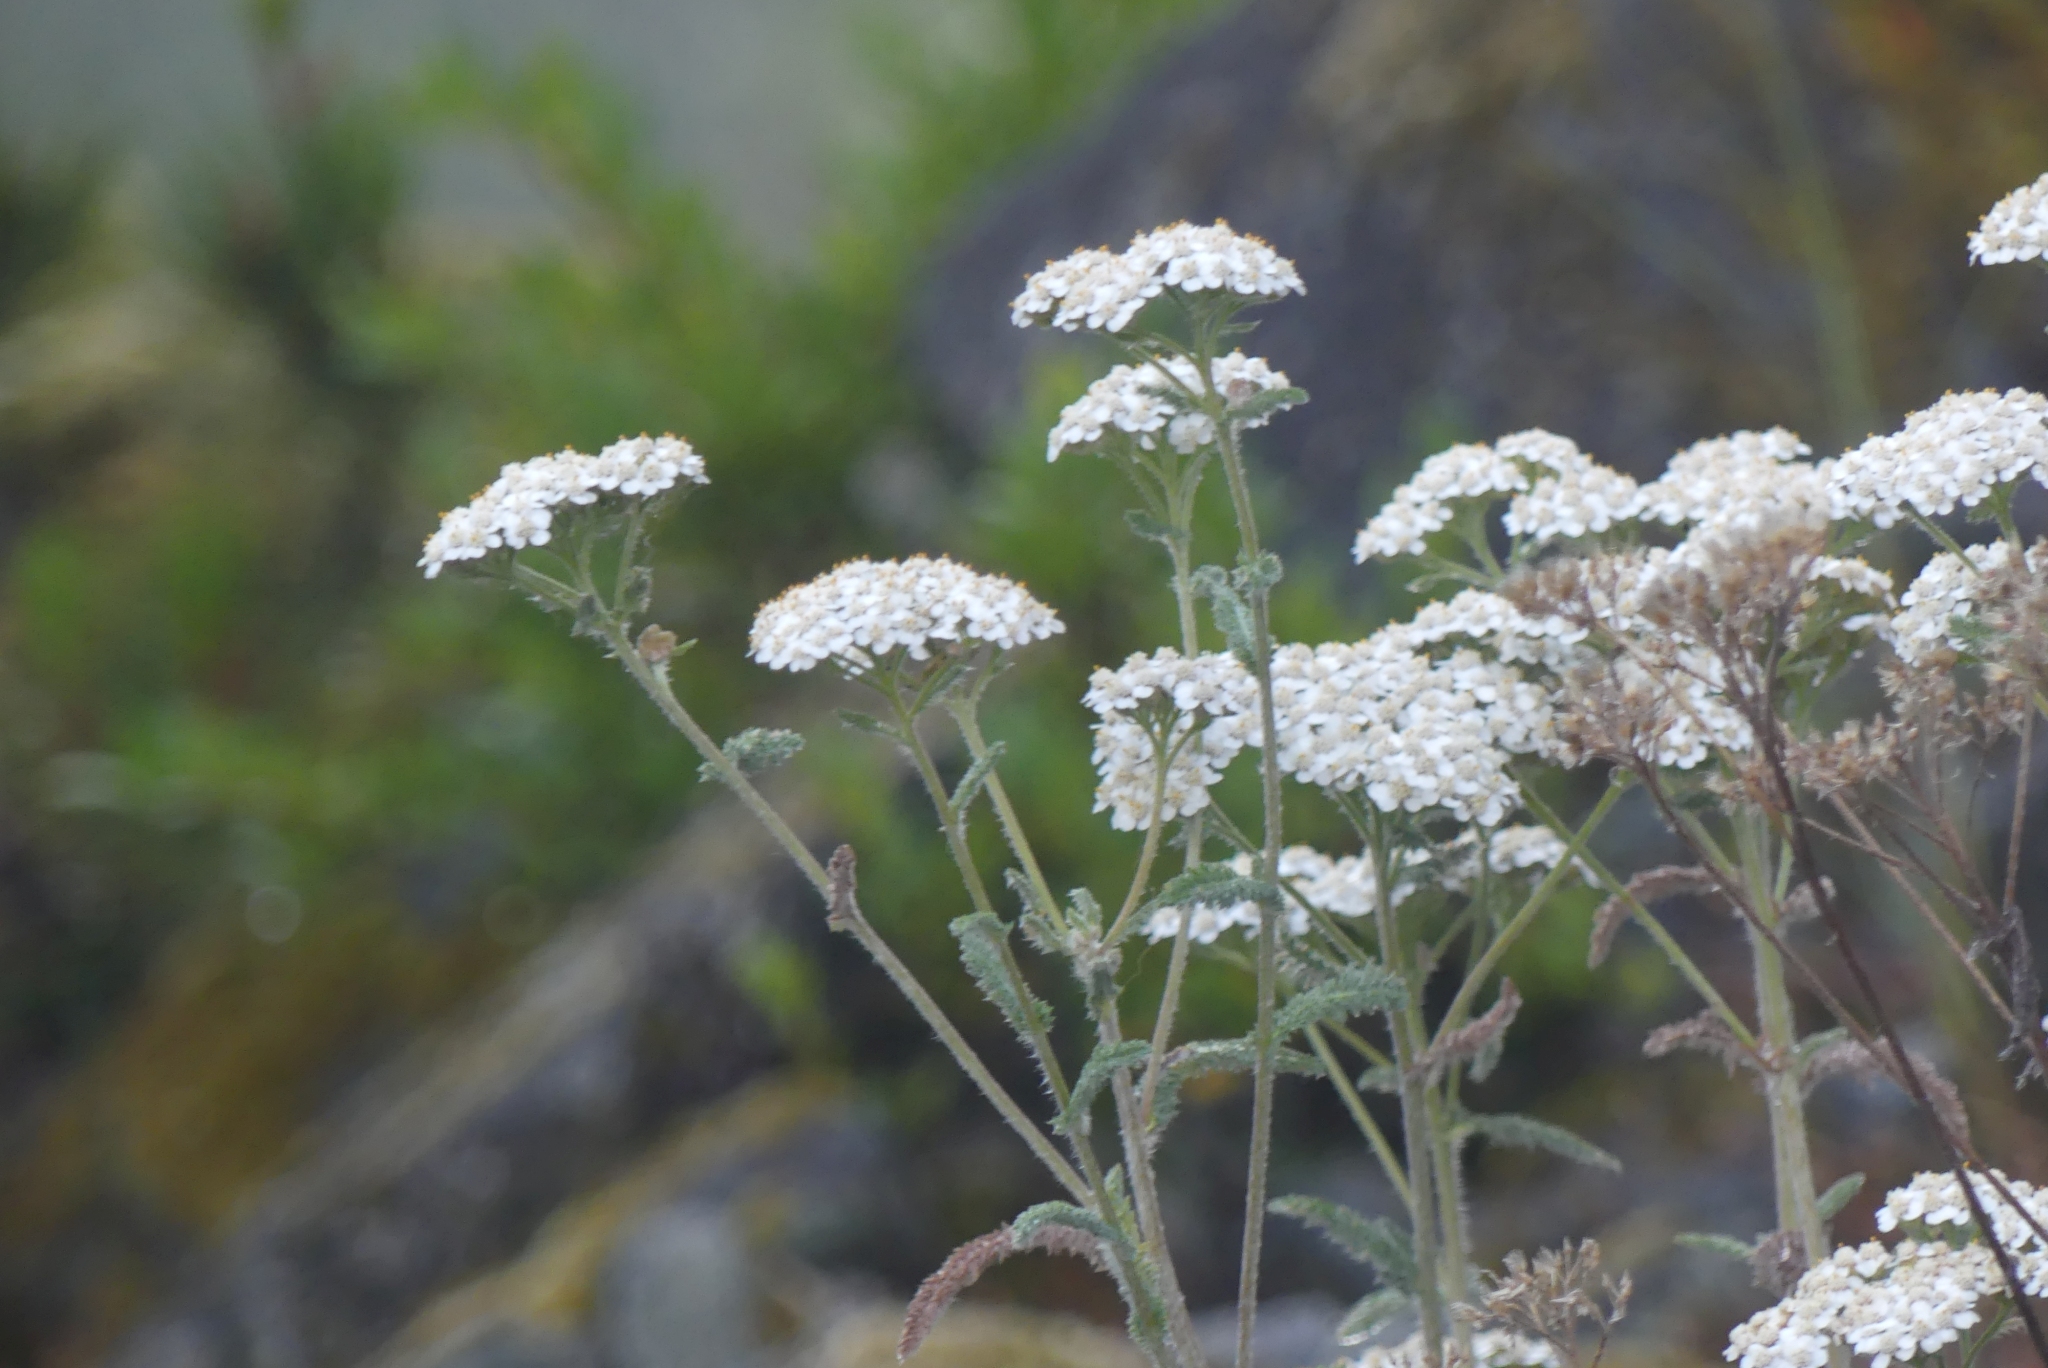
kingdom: Plantae
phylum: Tracheophyta
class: Magnoliopsida
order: Asterales
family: Asteraceae
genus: Achillea
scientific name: Achillea millefolium
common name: Yarrow
